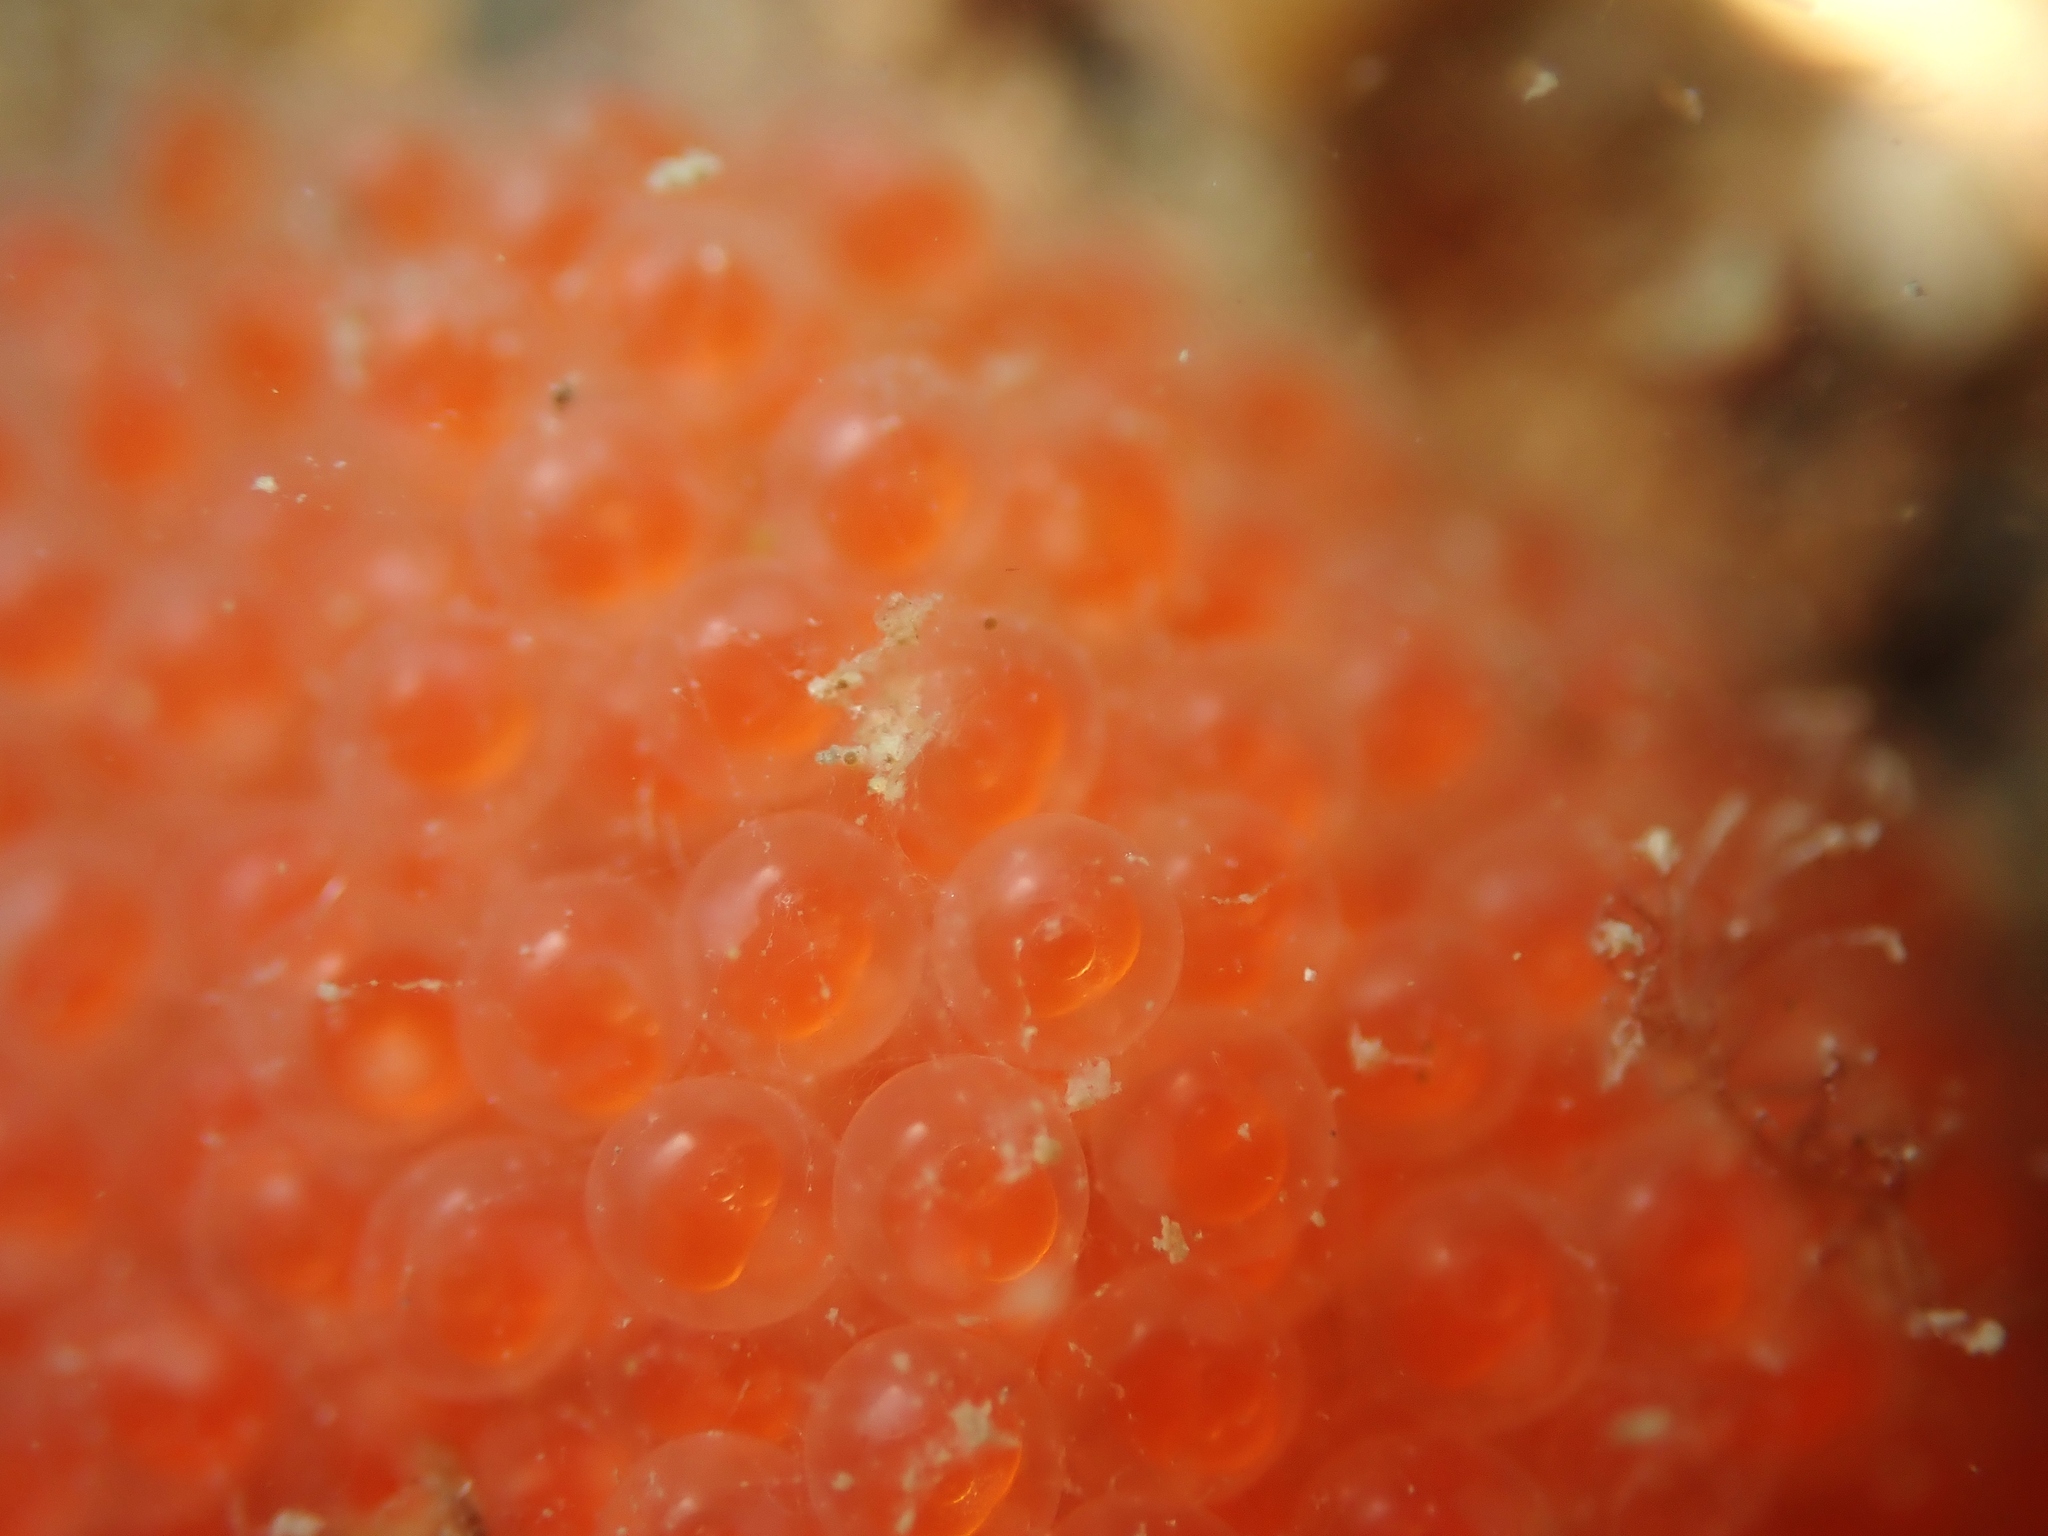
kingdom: Animalia
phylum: Chordata
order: Perciformes
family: Plesiopidae
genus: Acanthoclinus
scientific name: Acanthoclinus fuscus
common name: Olive rockfish
